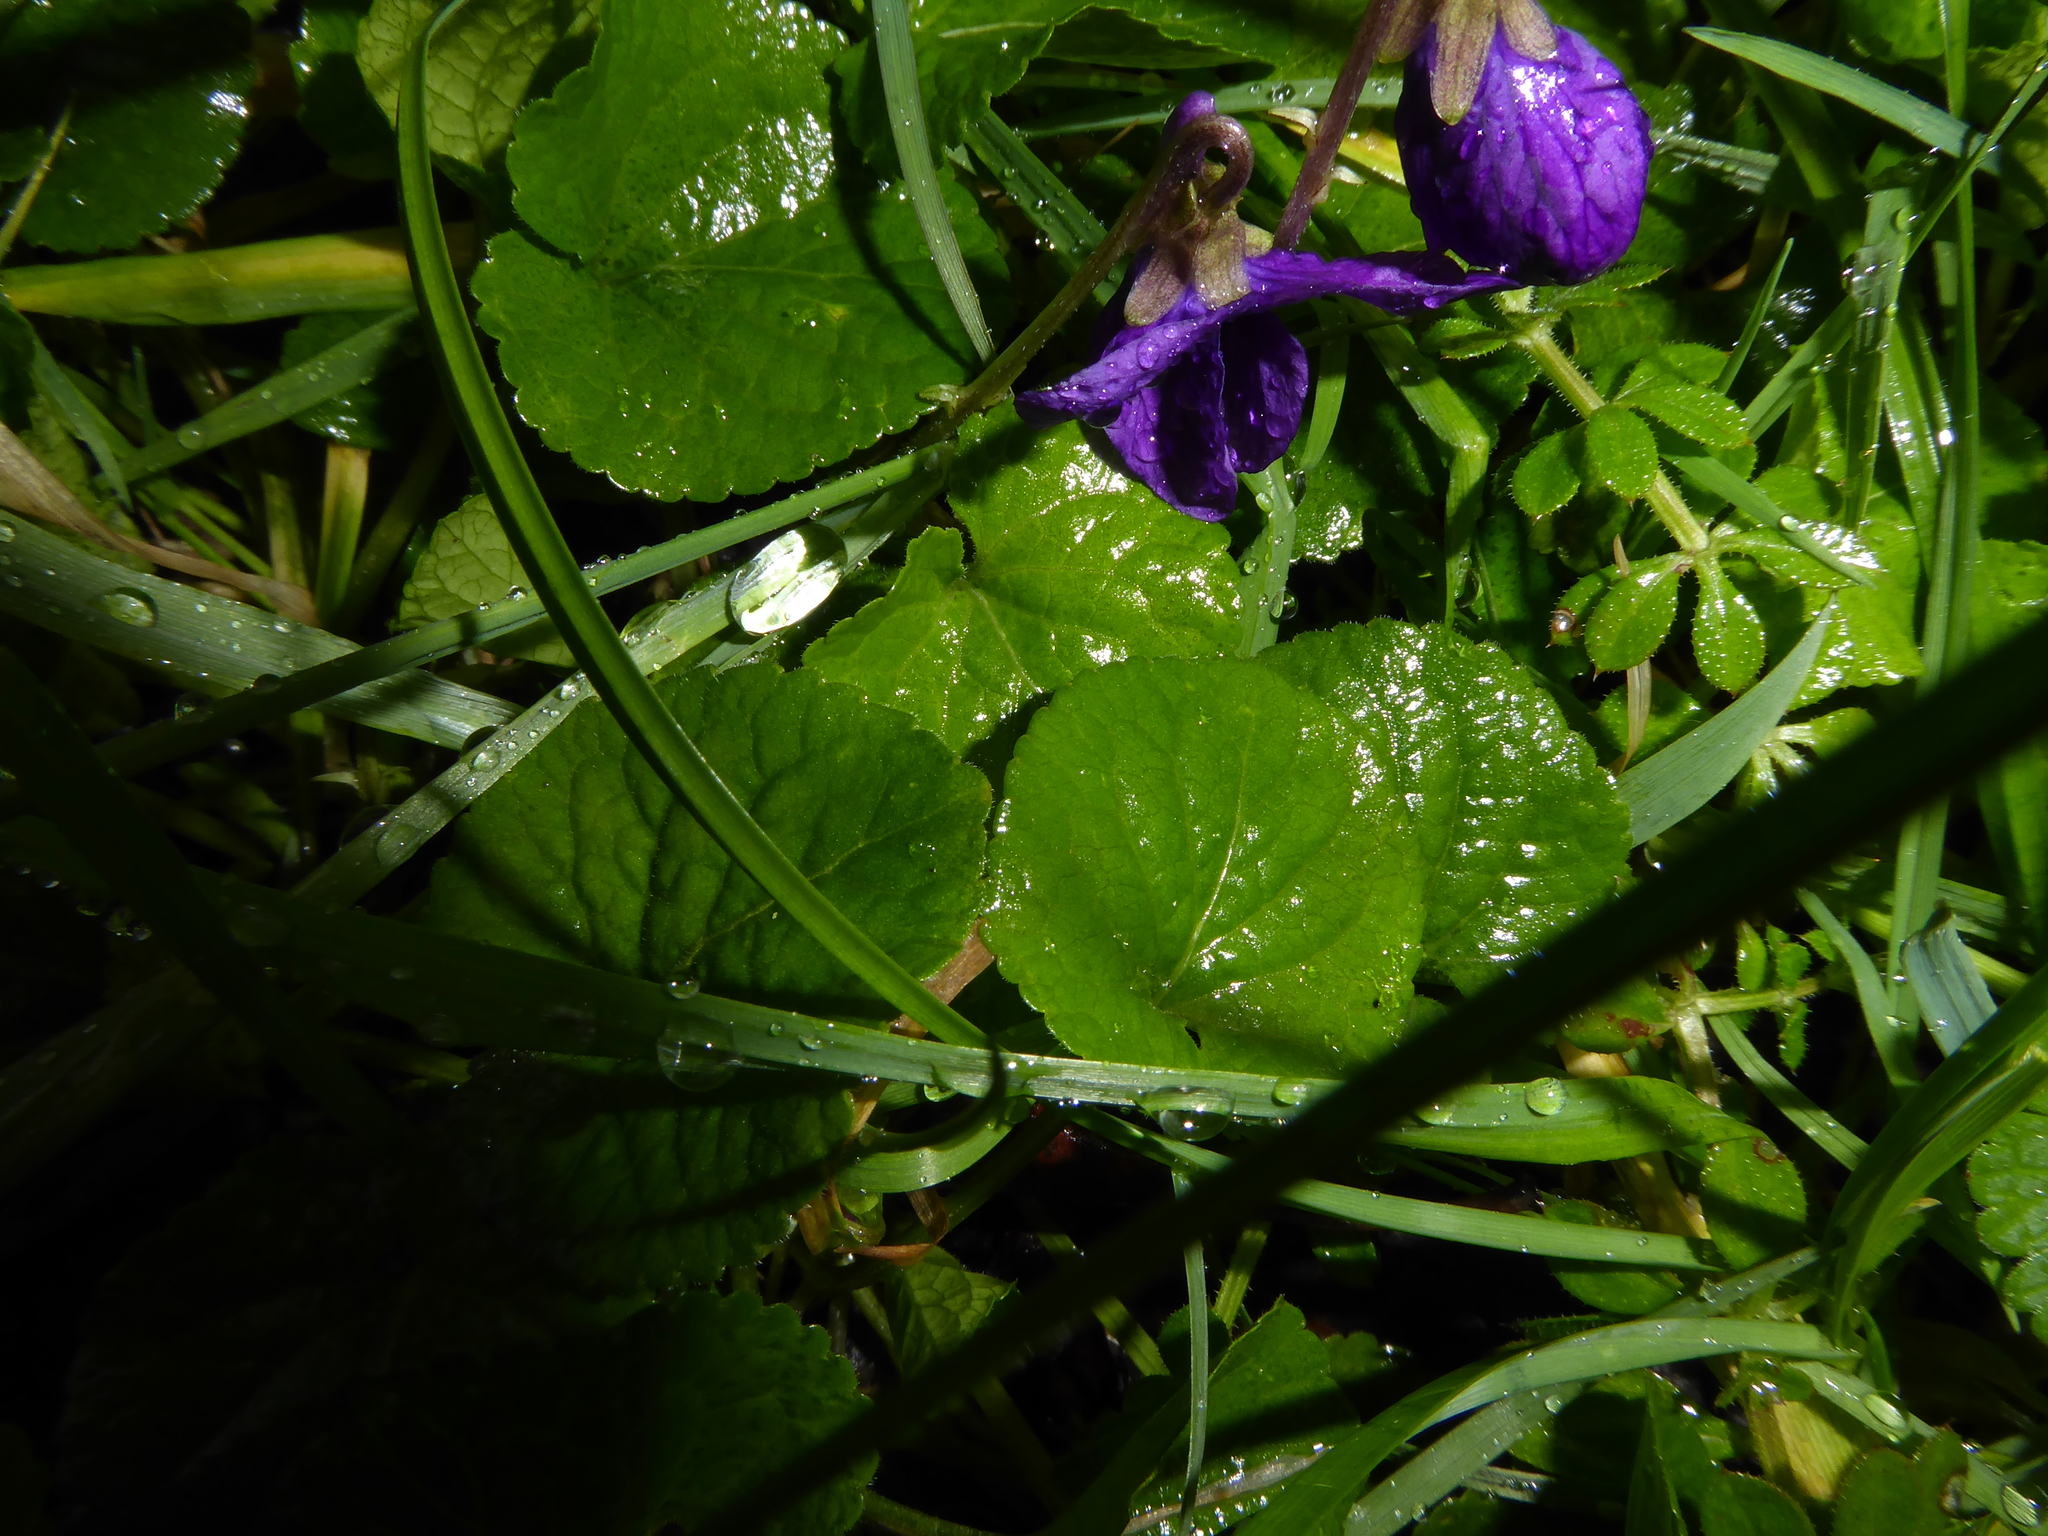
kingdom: Plantae
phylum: Tracheophyta
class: Magnoliopsida
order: Malpighiales
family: Violaceae
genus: Viola
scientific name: Viola odorata
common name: Sweet violet
